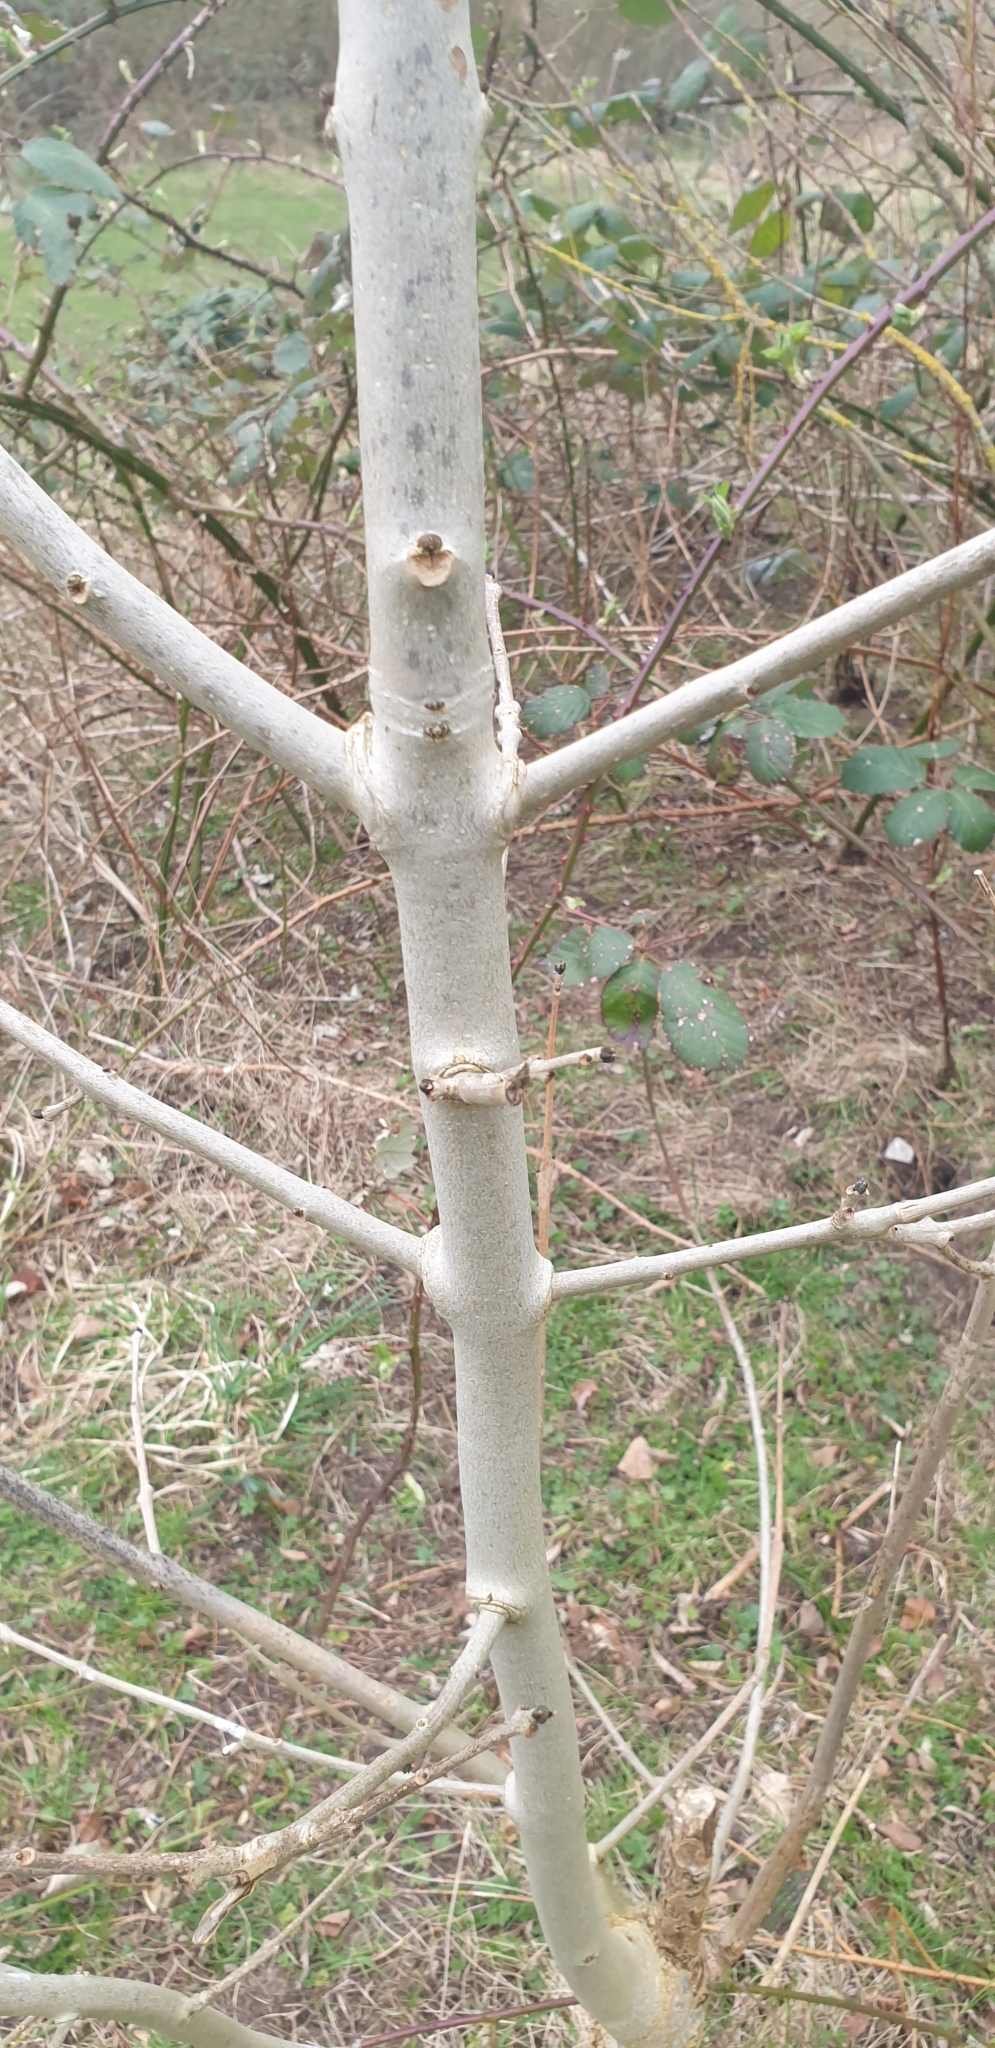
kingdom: Plantae
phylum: Tracheophyta
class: Magnoliopsida
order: Lamiales
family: Oleaceae
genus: Fraxinus
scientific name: Fraxinus excelsior
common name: European ash
